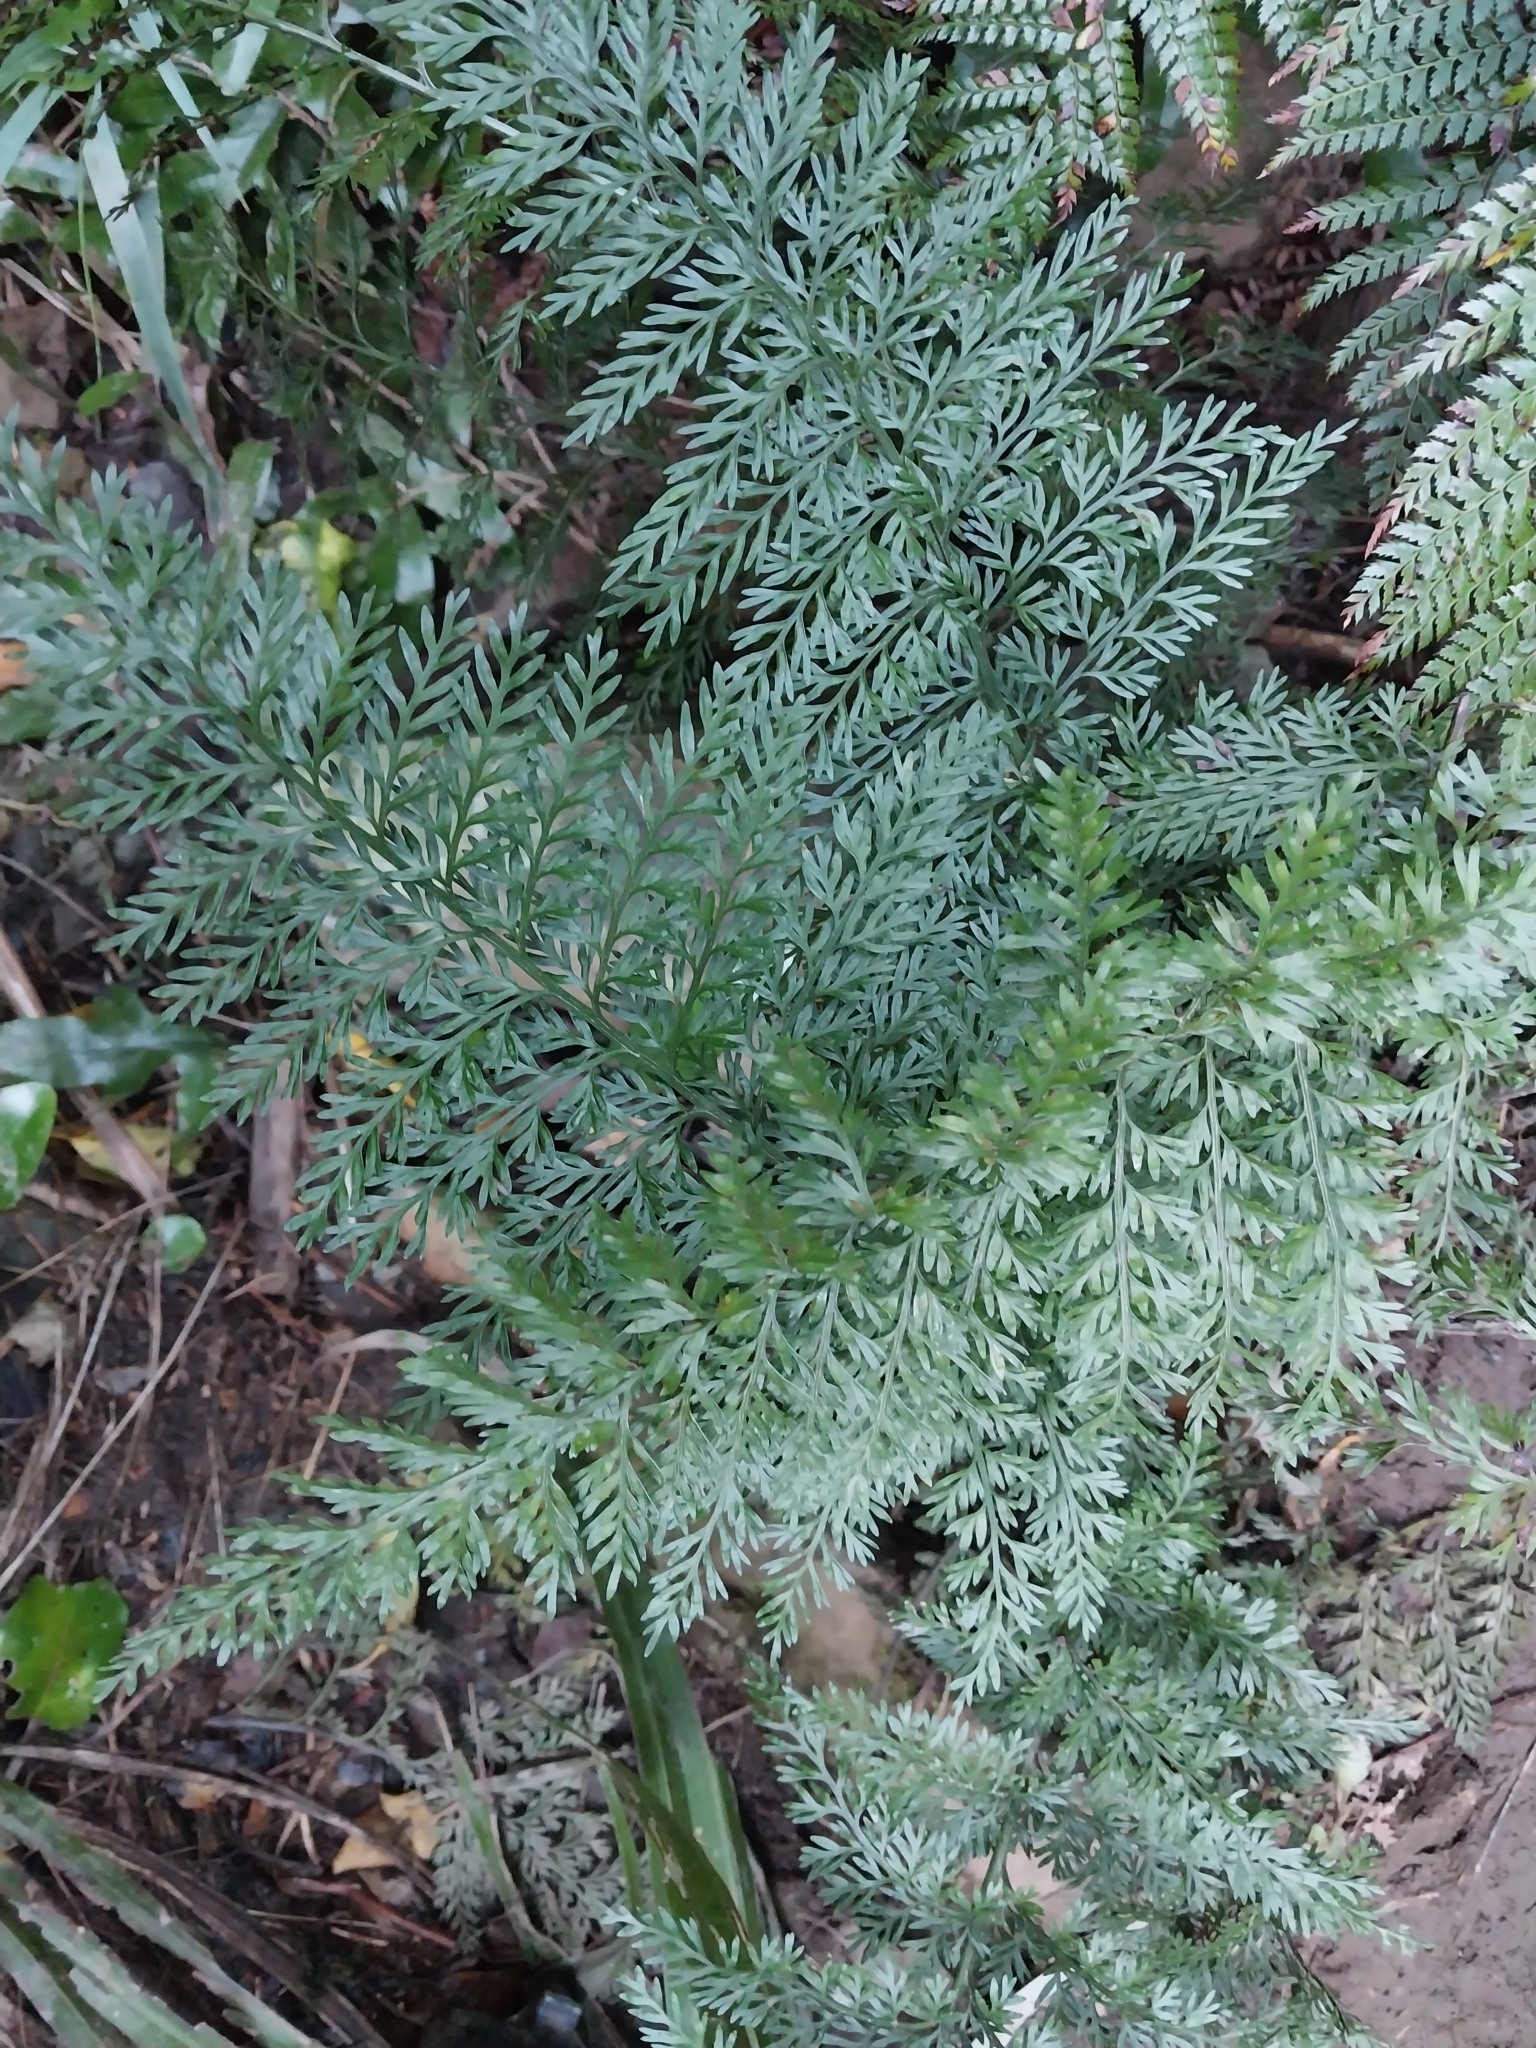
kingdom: Plantae
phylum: Tracheophyta
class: Polypodiopsida
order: Polypodiales
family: Aspleniaceae
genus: Asplenium
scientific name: Asplenium richardii
